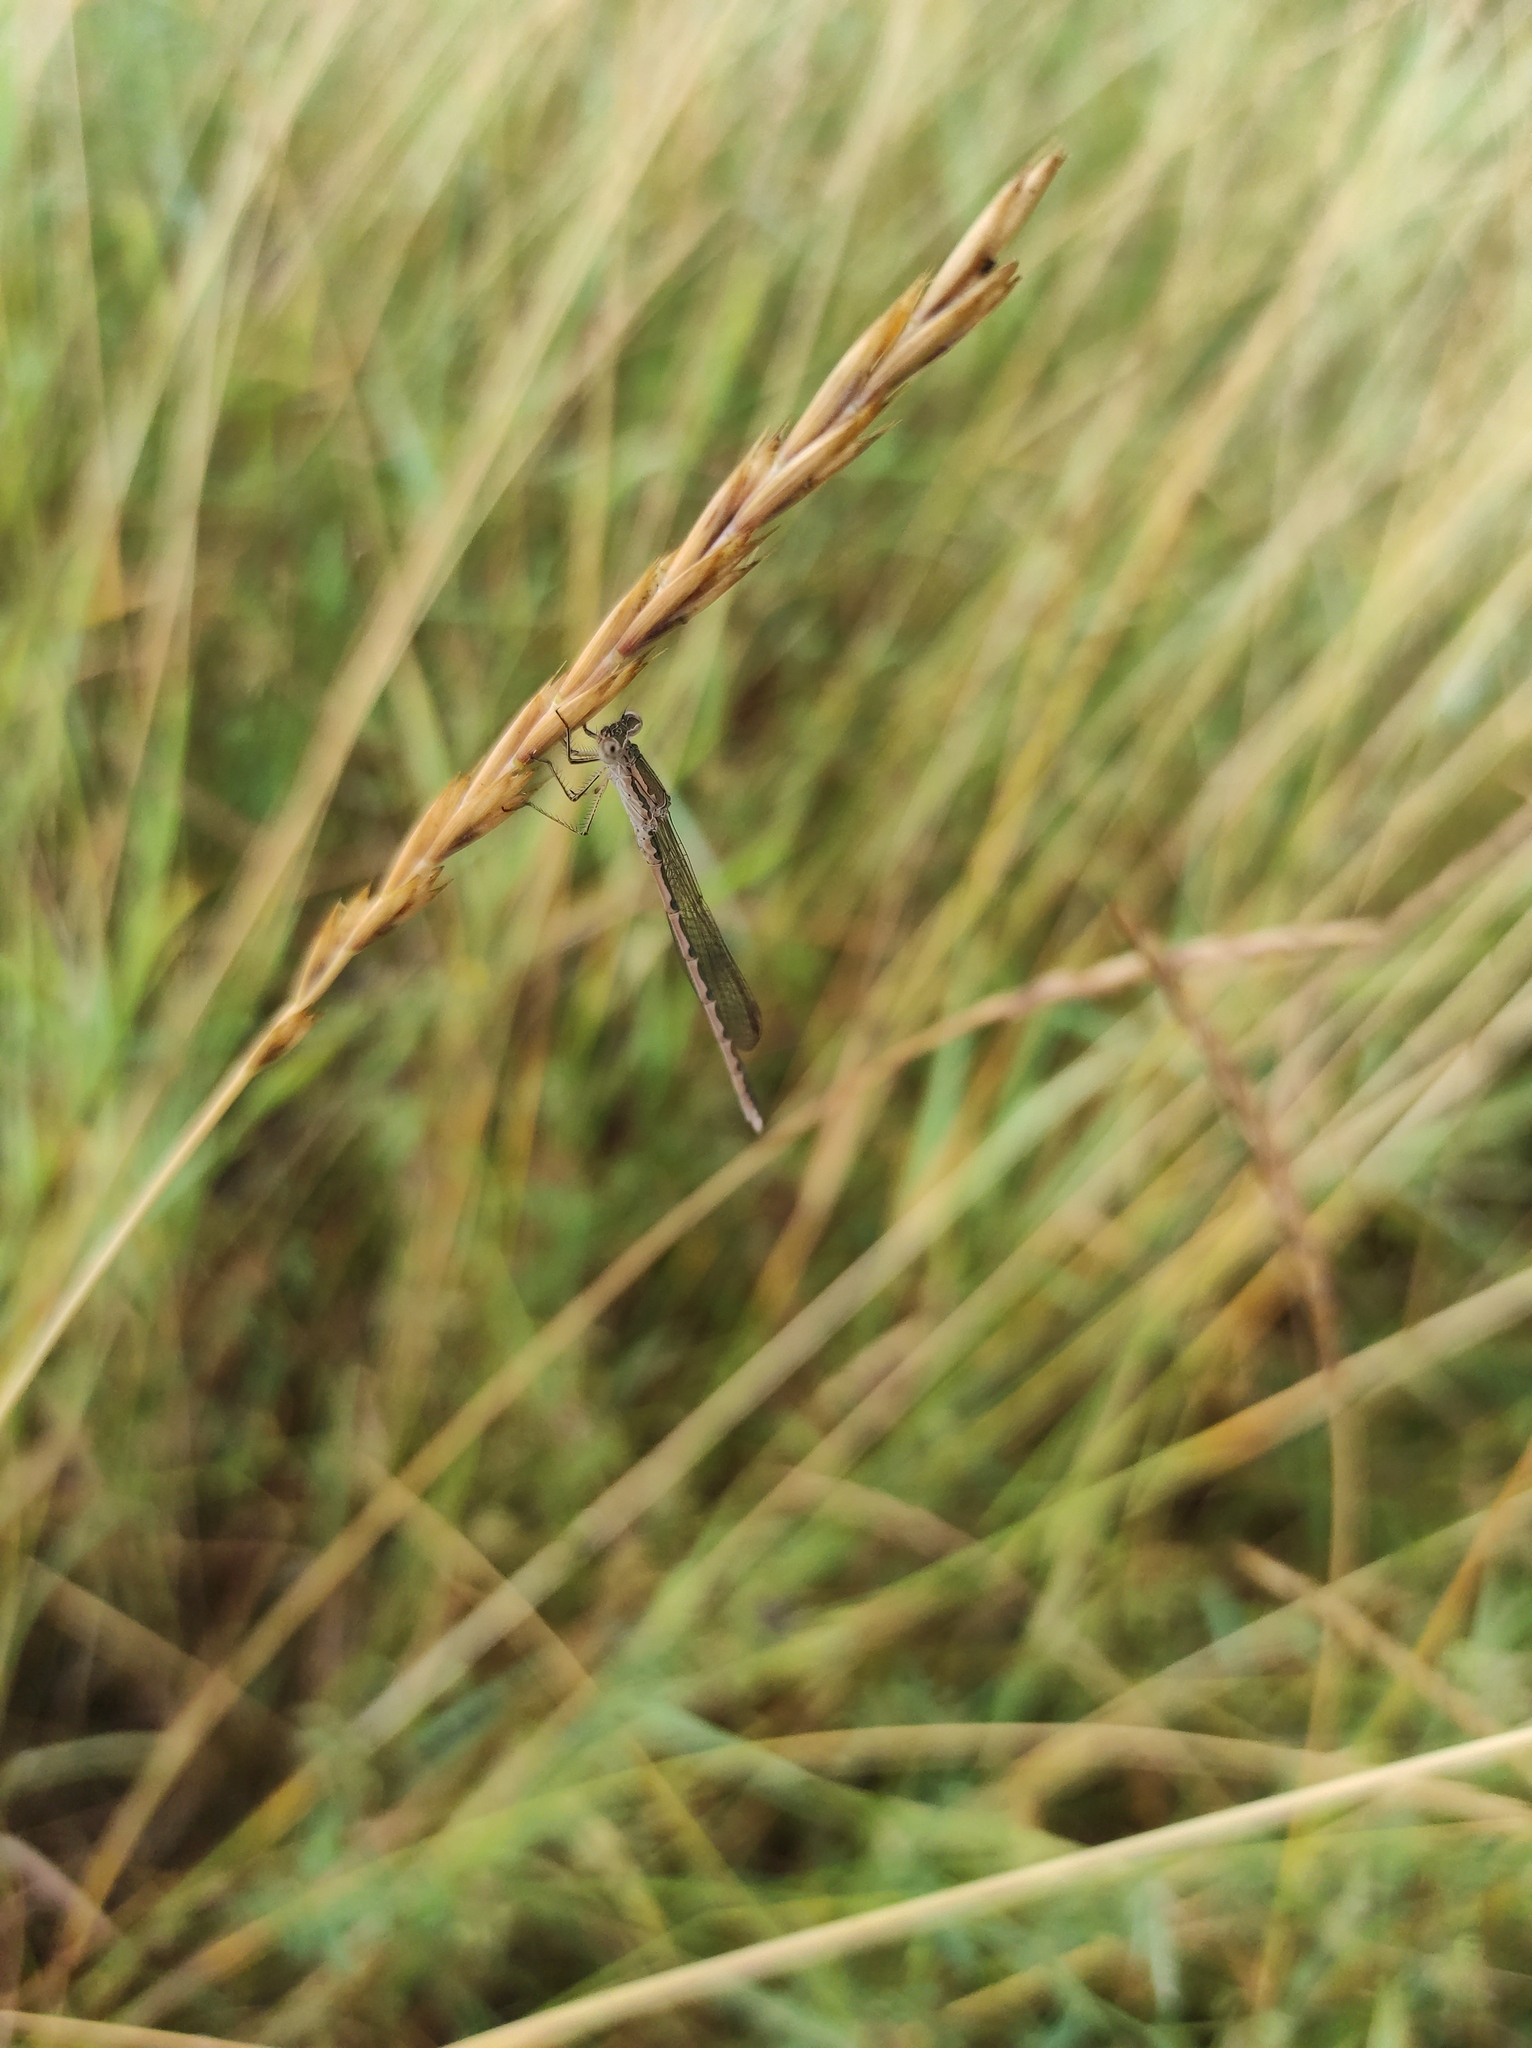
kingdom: Animalia
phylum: Arthropoda
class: Insecta
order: Odonata
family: Lestidae
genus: Sympecma
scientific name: Sympecma paedisca
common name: Siberian winter damsel
